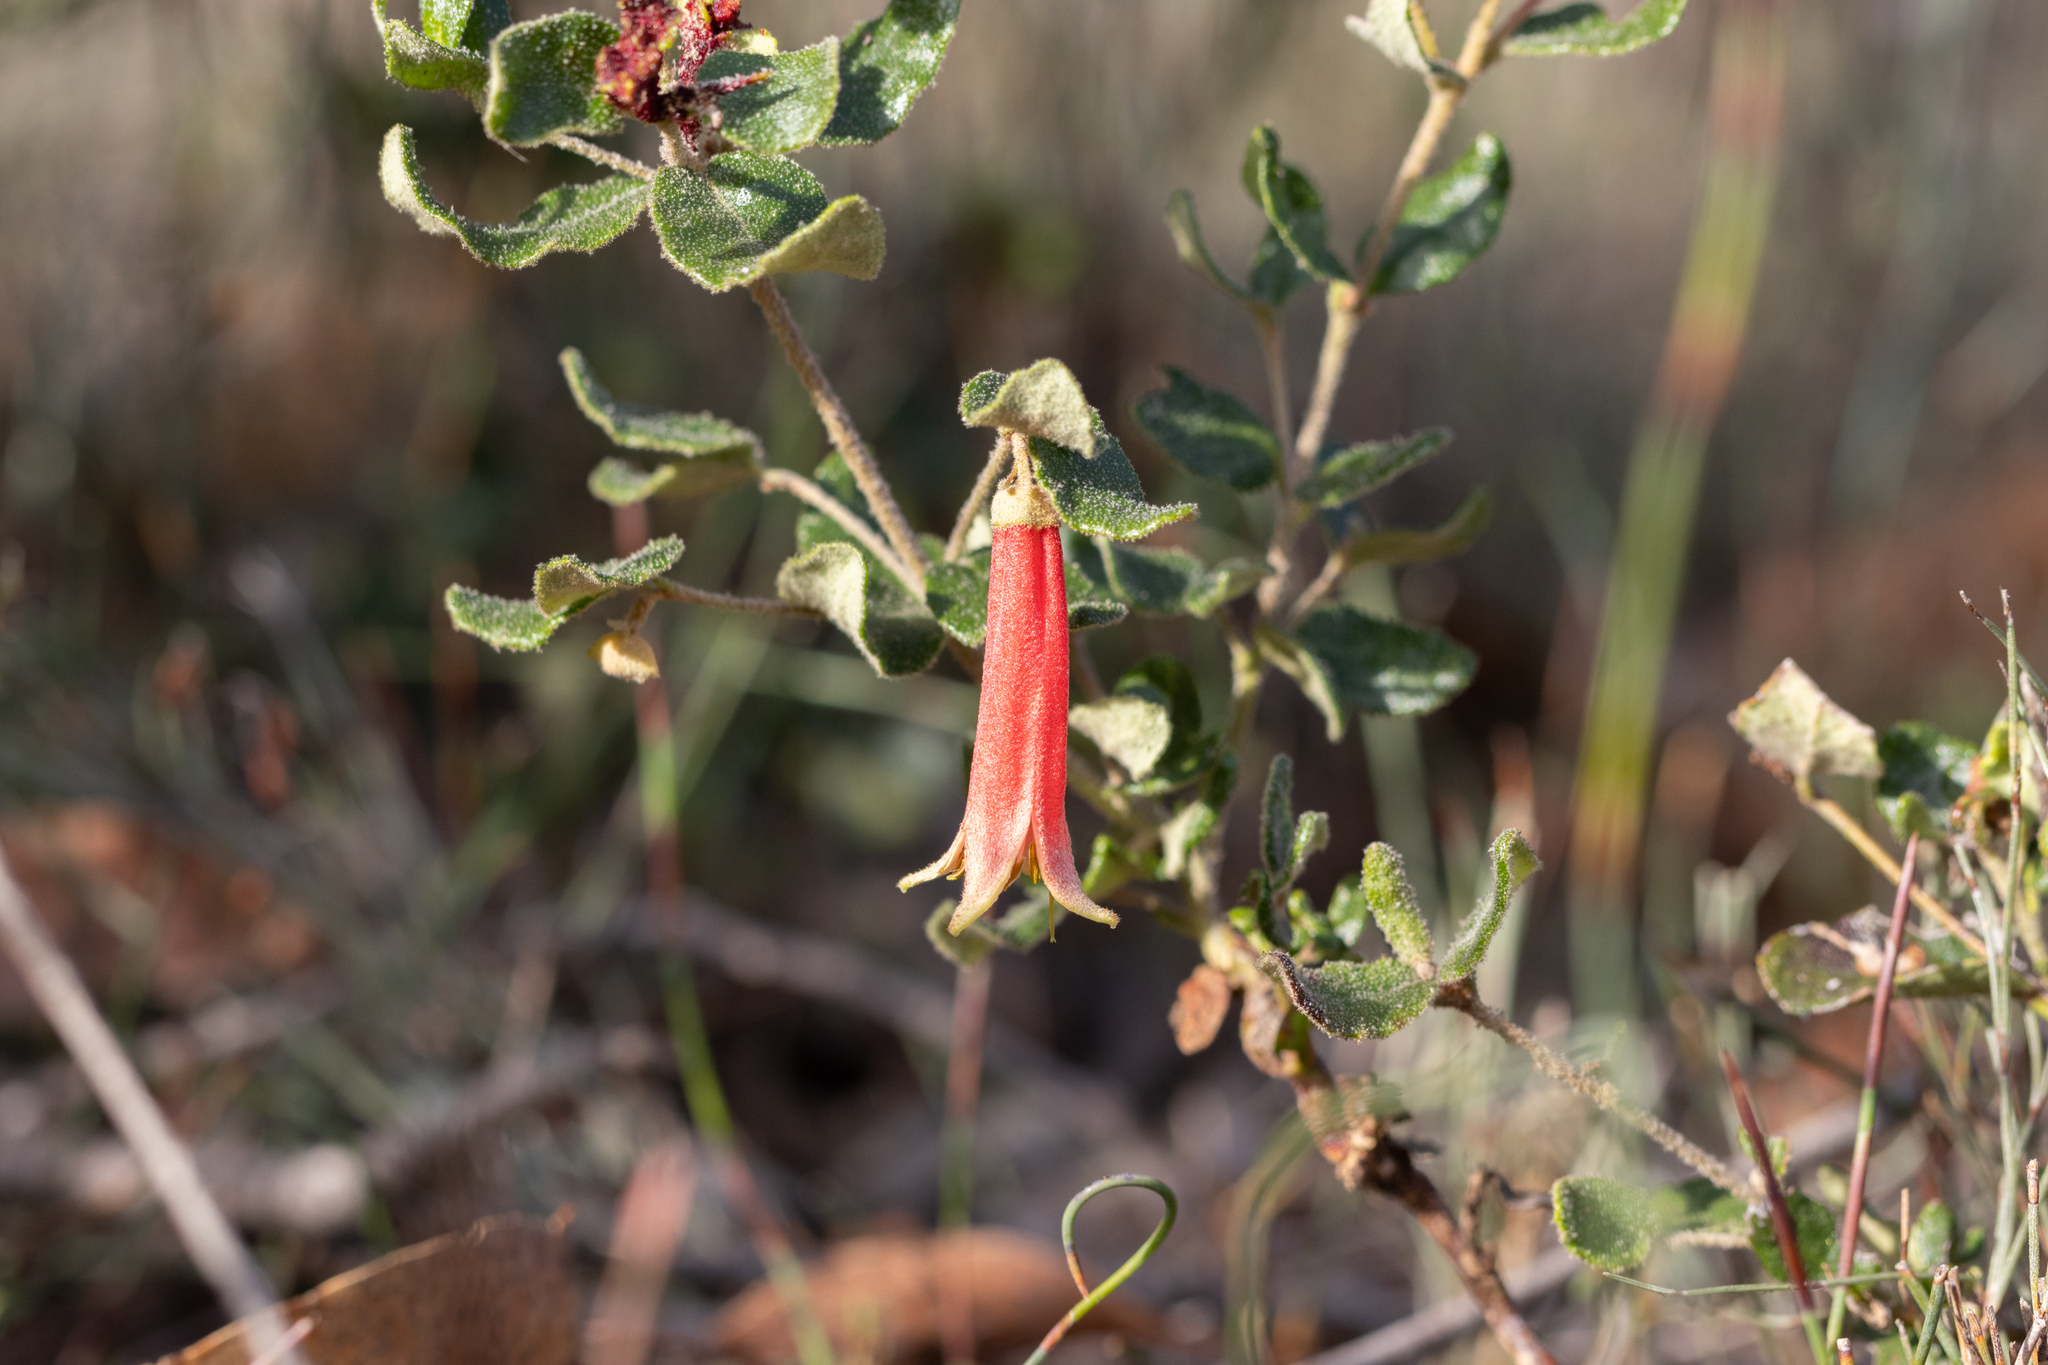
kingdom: Plantae
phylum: Tracheophyta
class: Magnoliopsida
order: Sapindales
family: Rutaceae
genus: Correa
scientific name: Correa reflexa
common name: Common correa
